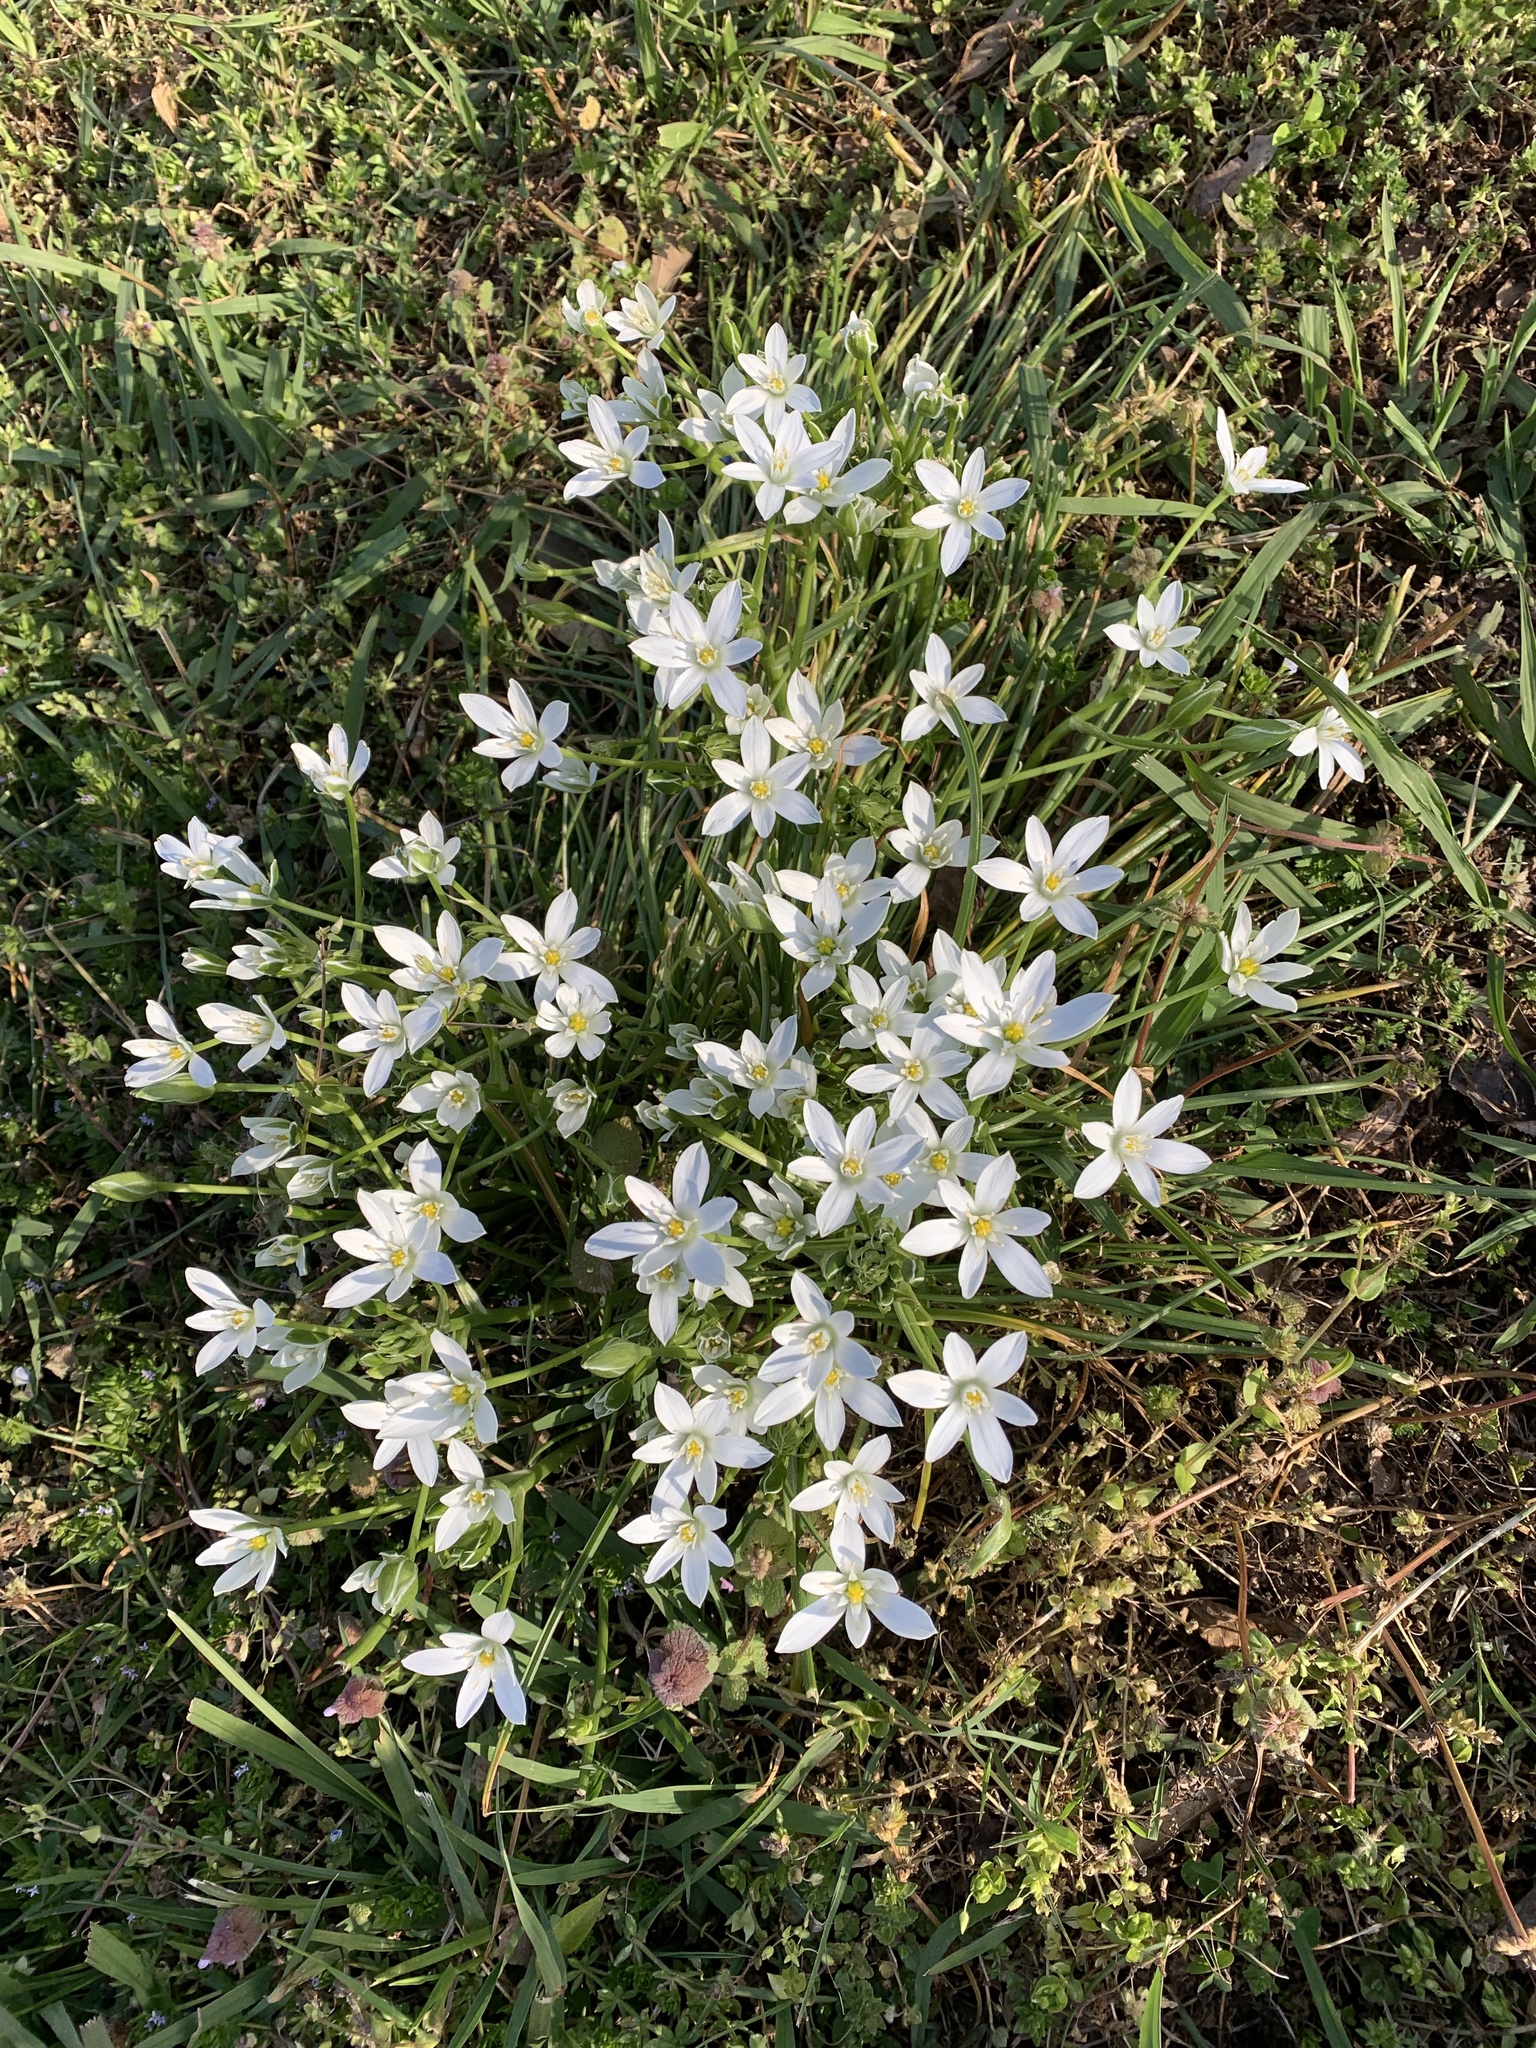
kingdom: Plantae
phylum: Tracheophyta
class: Liliopsida
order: Asparagales
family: Asparagaceae
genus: Ornithogalum
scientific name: Ornithogalum umbellatum
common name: Garden star-of-bethlehem
